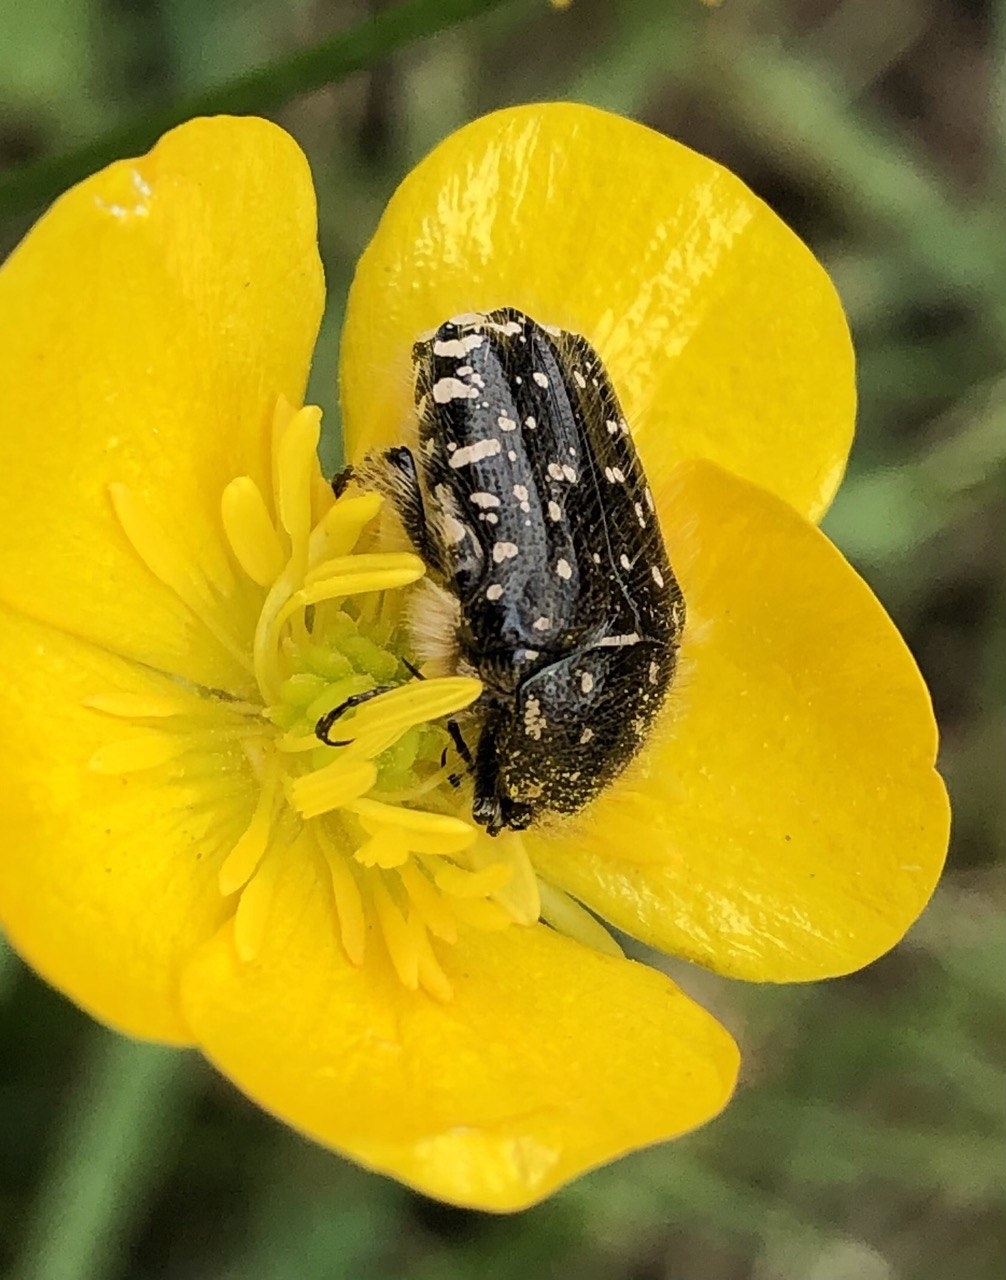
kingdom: Animalia
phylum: Arthropoda
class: Insecta
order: Coleoptera
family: Scarabaeidae
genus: Oxythyrea
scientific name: Oxythyrea funesta
